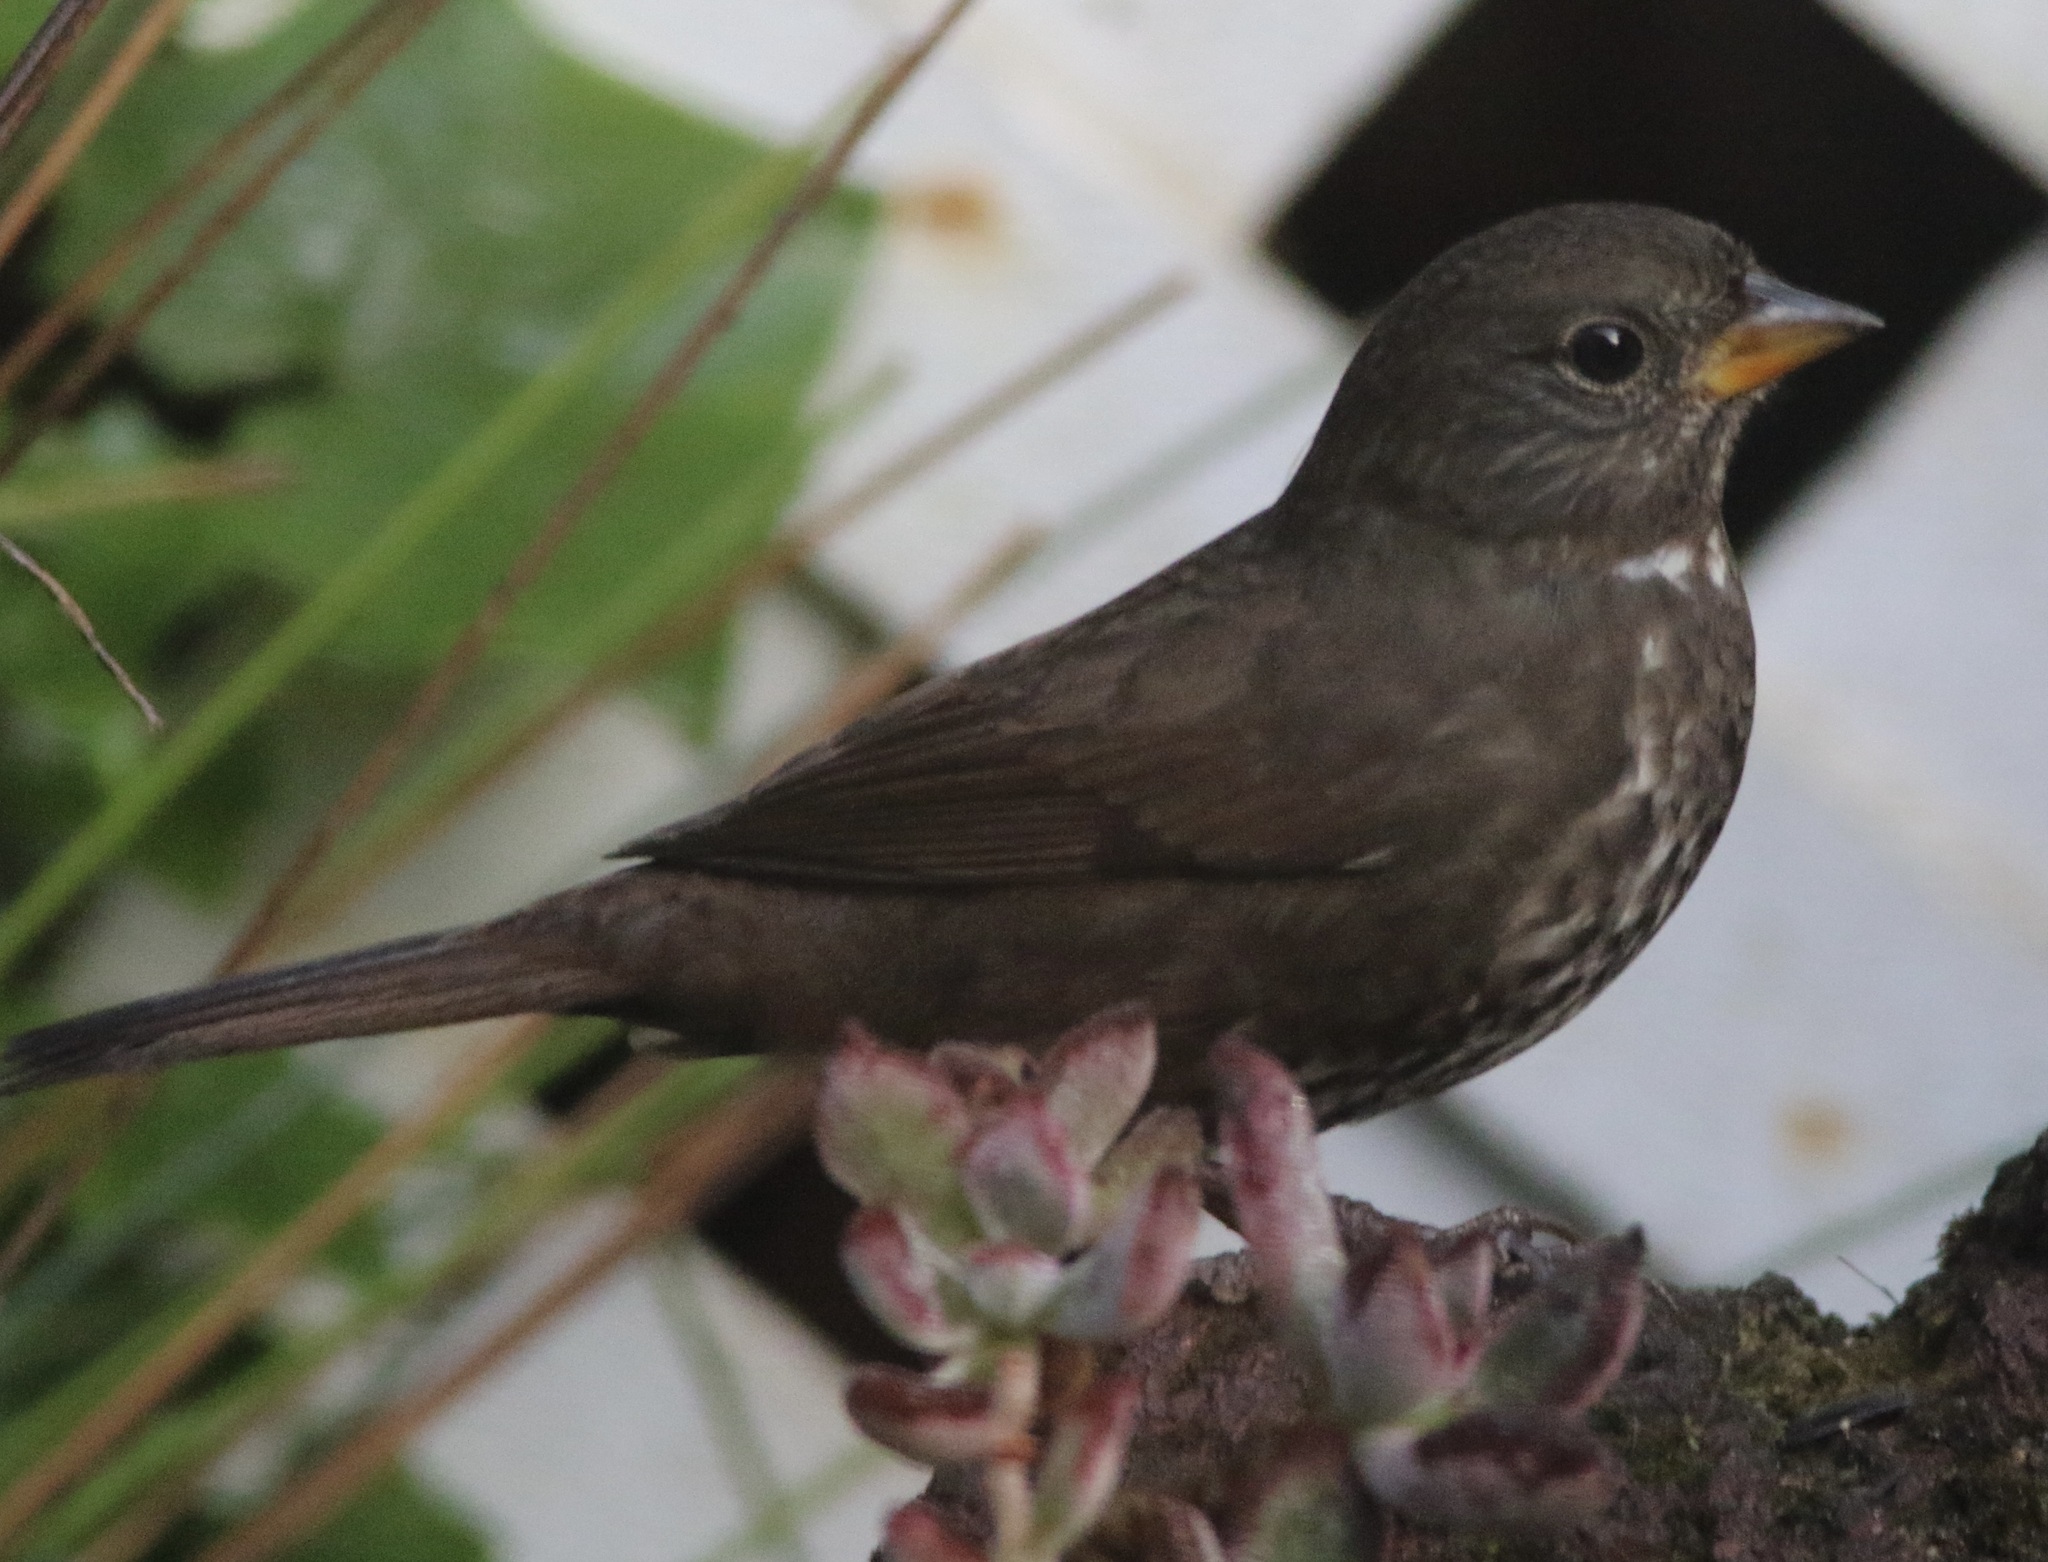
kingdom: Animalia
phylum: Chordata
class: Aves
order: Passeriformes
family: Passerellidae
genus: Passerella
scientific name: Passerella iliaca
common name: Fox sparrow
